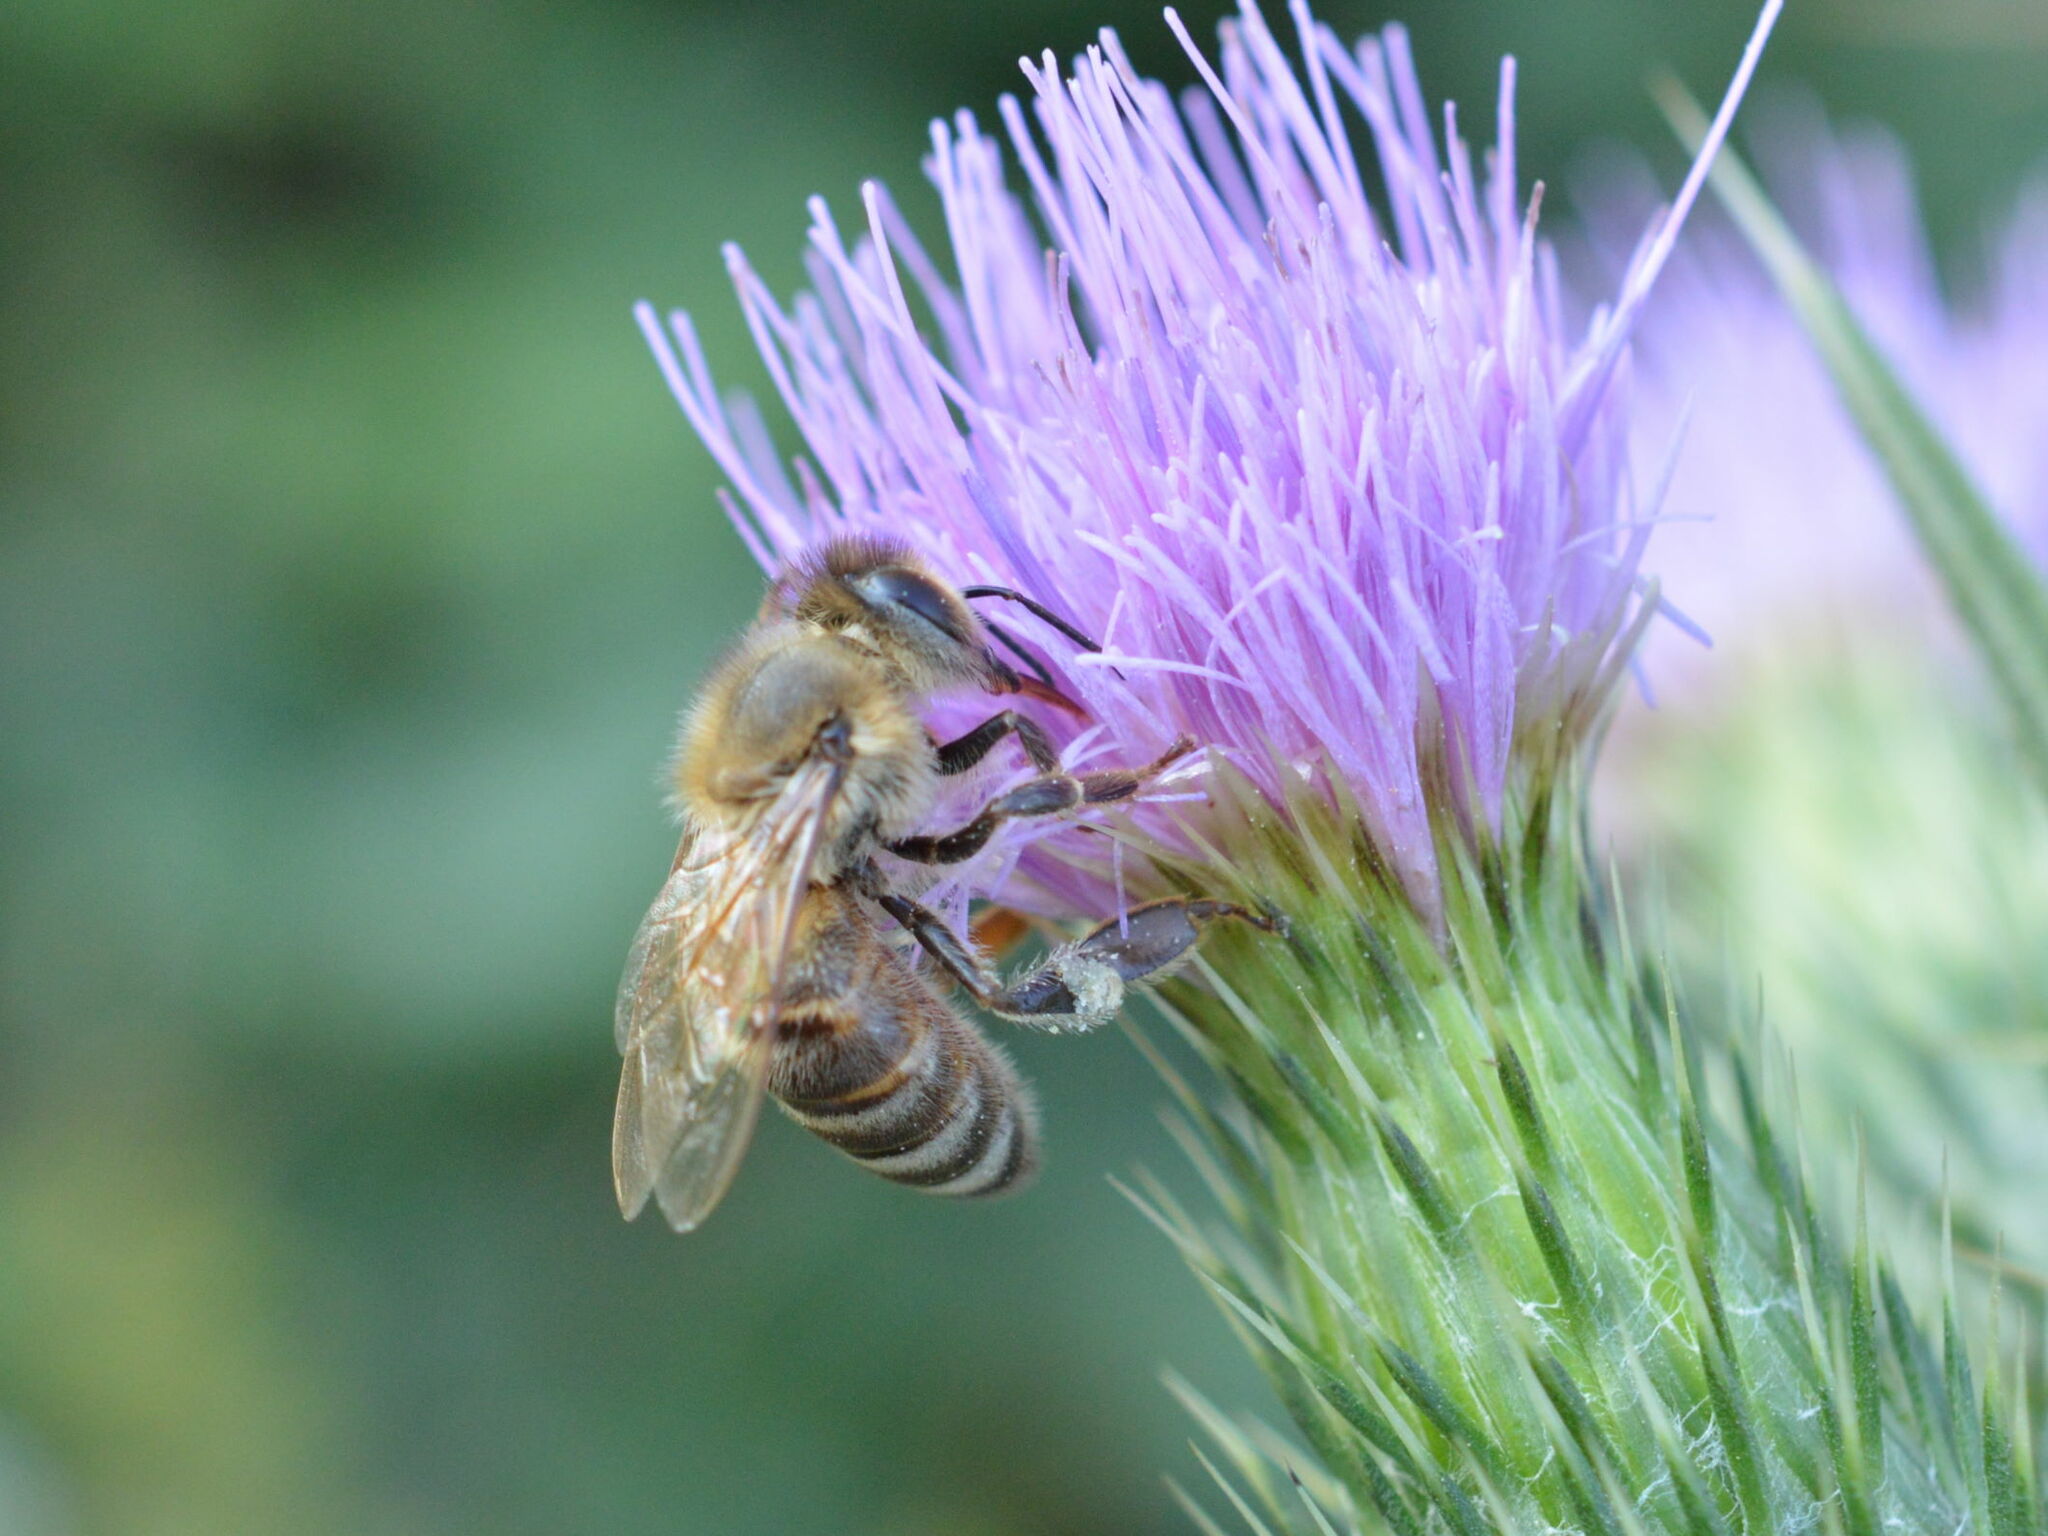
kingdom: Animalia
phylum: Arthropoda
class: Insecta
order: Hymenoptera
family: Apidae
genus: Apis
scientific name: Apis mellifera
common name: Honey bee
